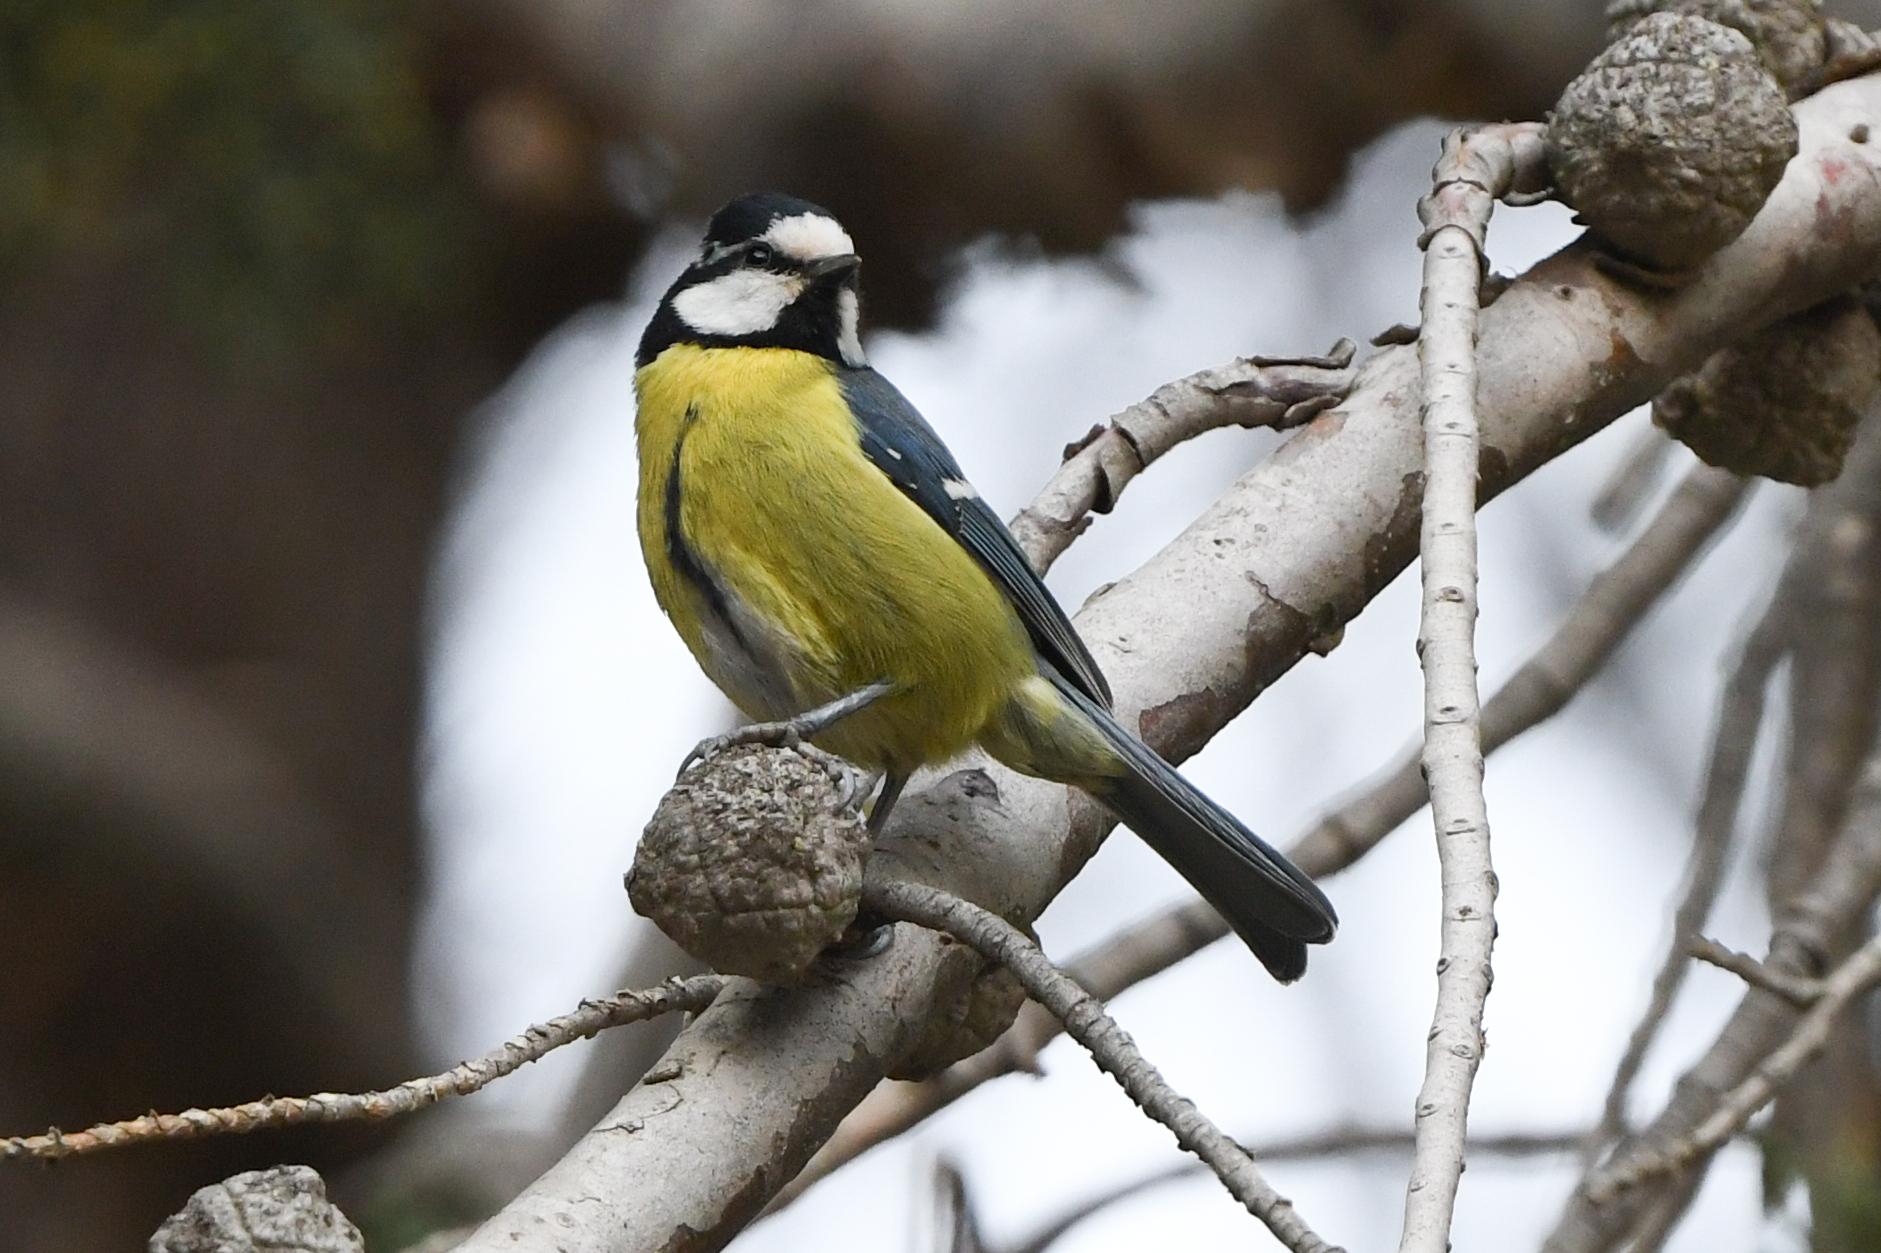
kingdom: Animalia
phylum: Chordata
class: Aves
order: Passeriformes
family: Paridae
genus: Cyanistes
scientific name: Cyanistes teneriffae
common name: African blue tit
